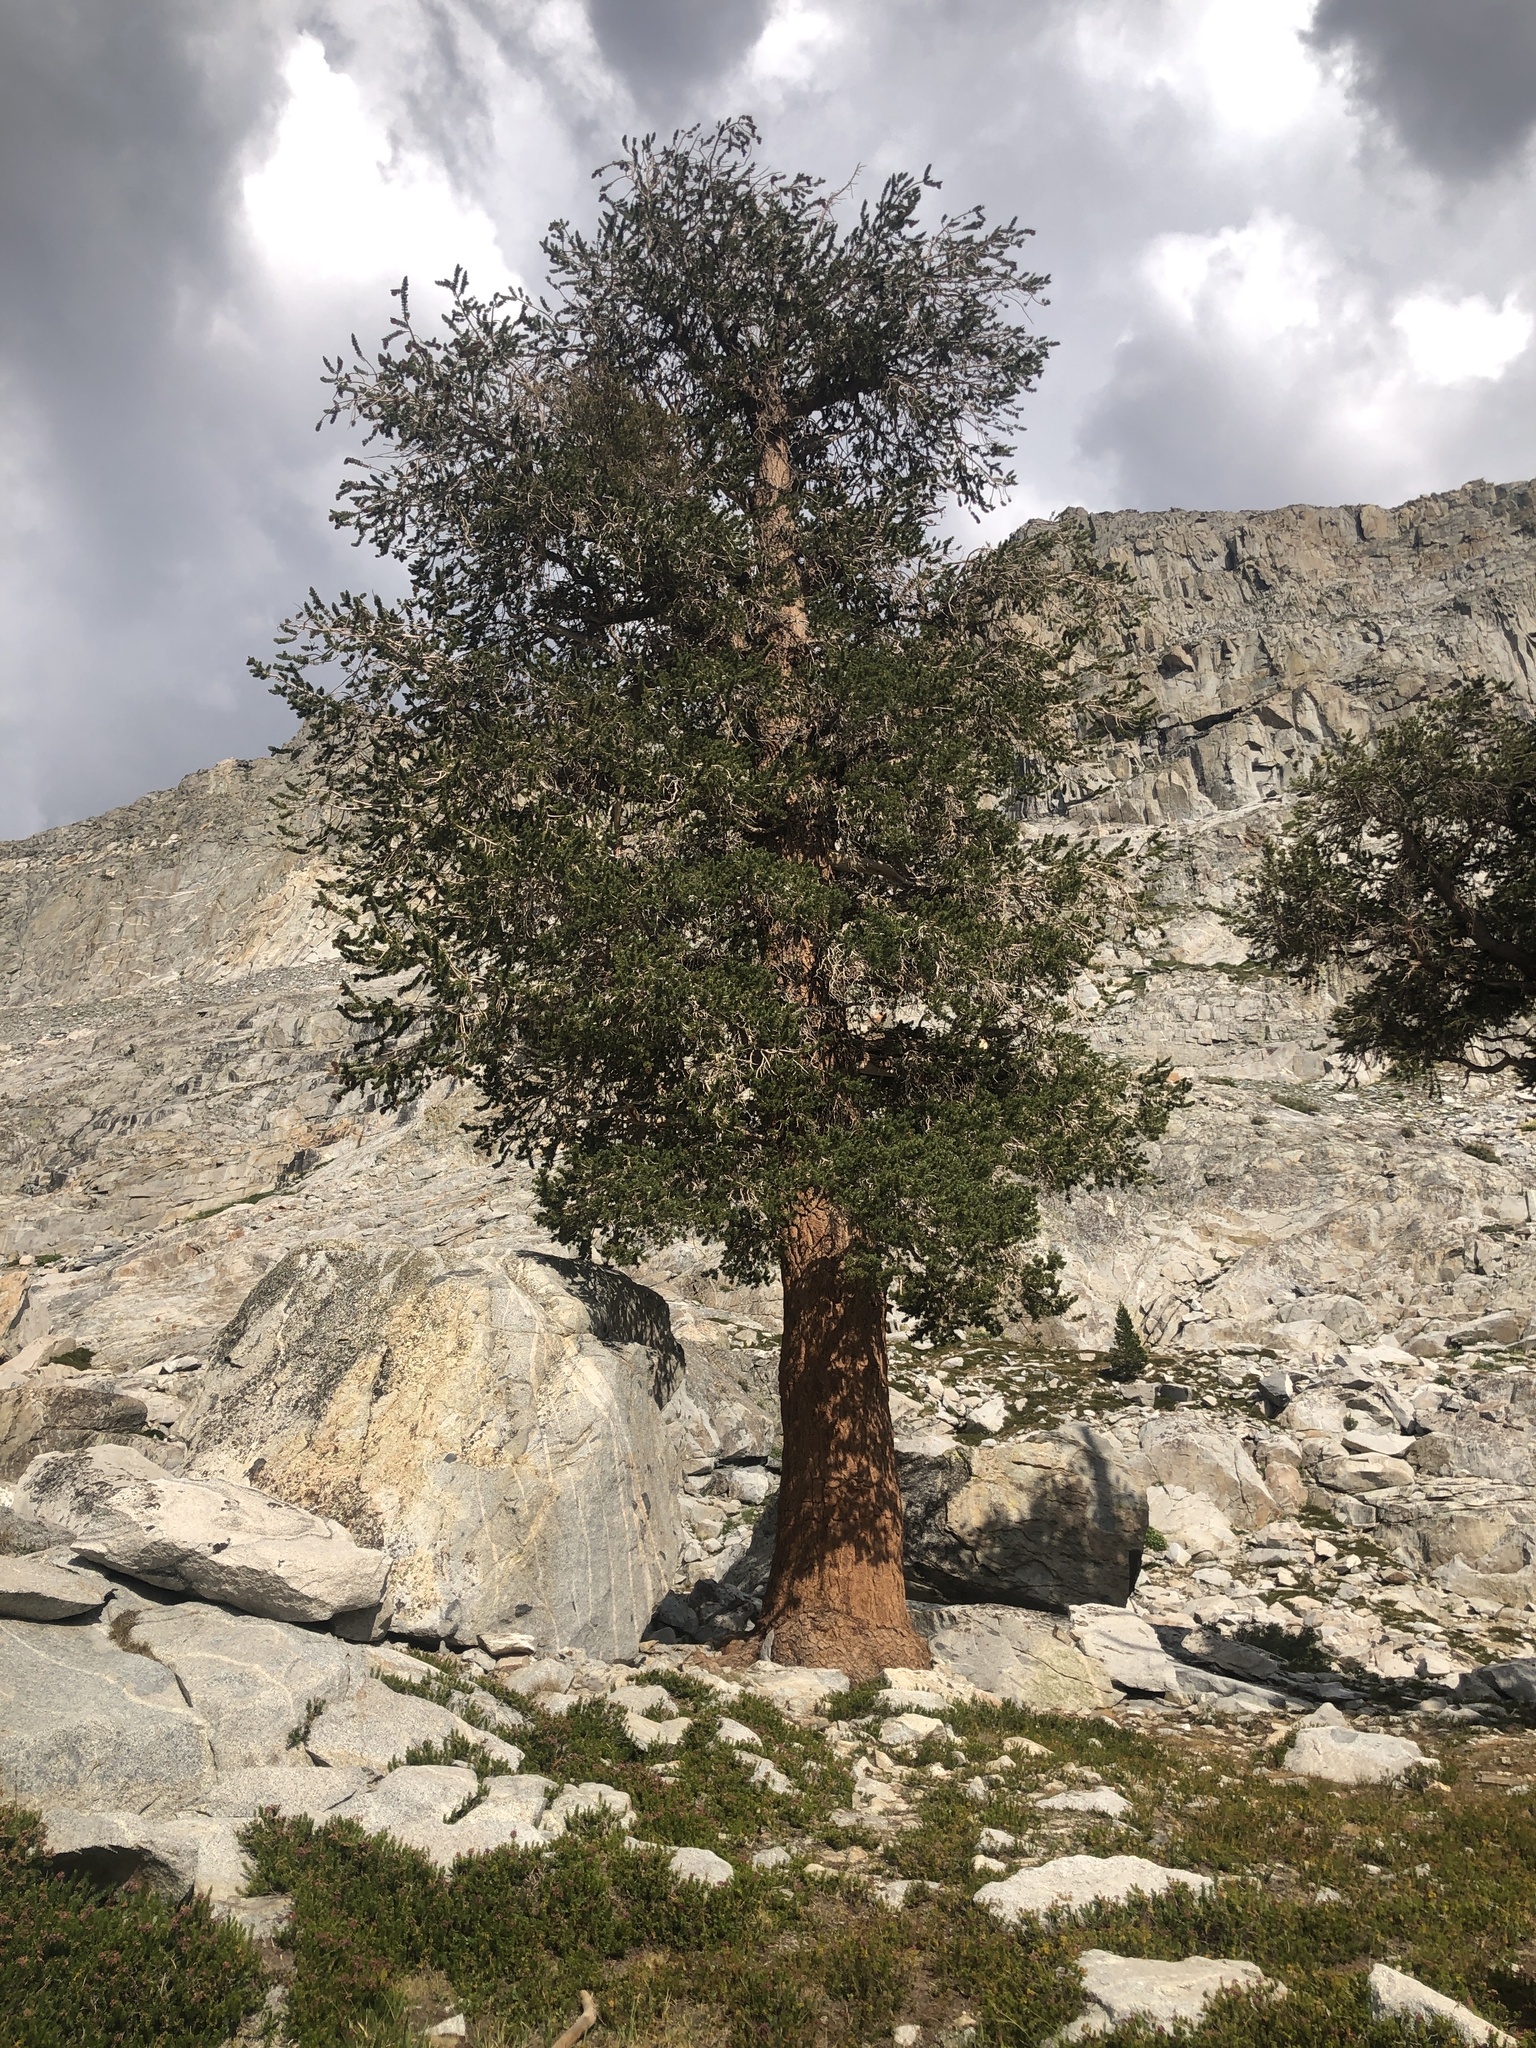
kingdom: Plantae
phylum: Tracheophyta
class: Pinopsida
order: Pinales
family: Pinaceae
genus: Pinus
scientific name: Pinus balfouriana
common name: Foxtail pine
